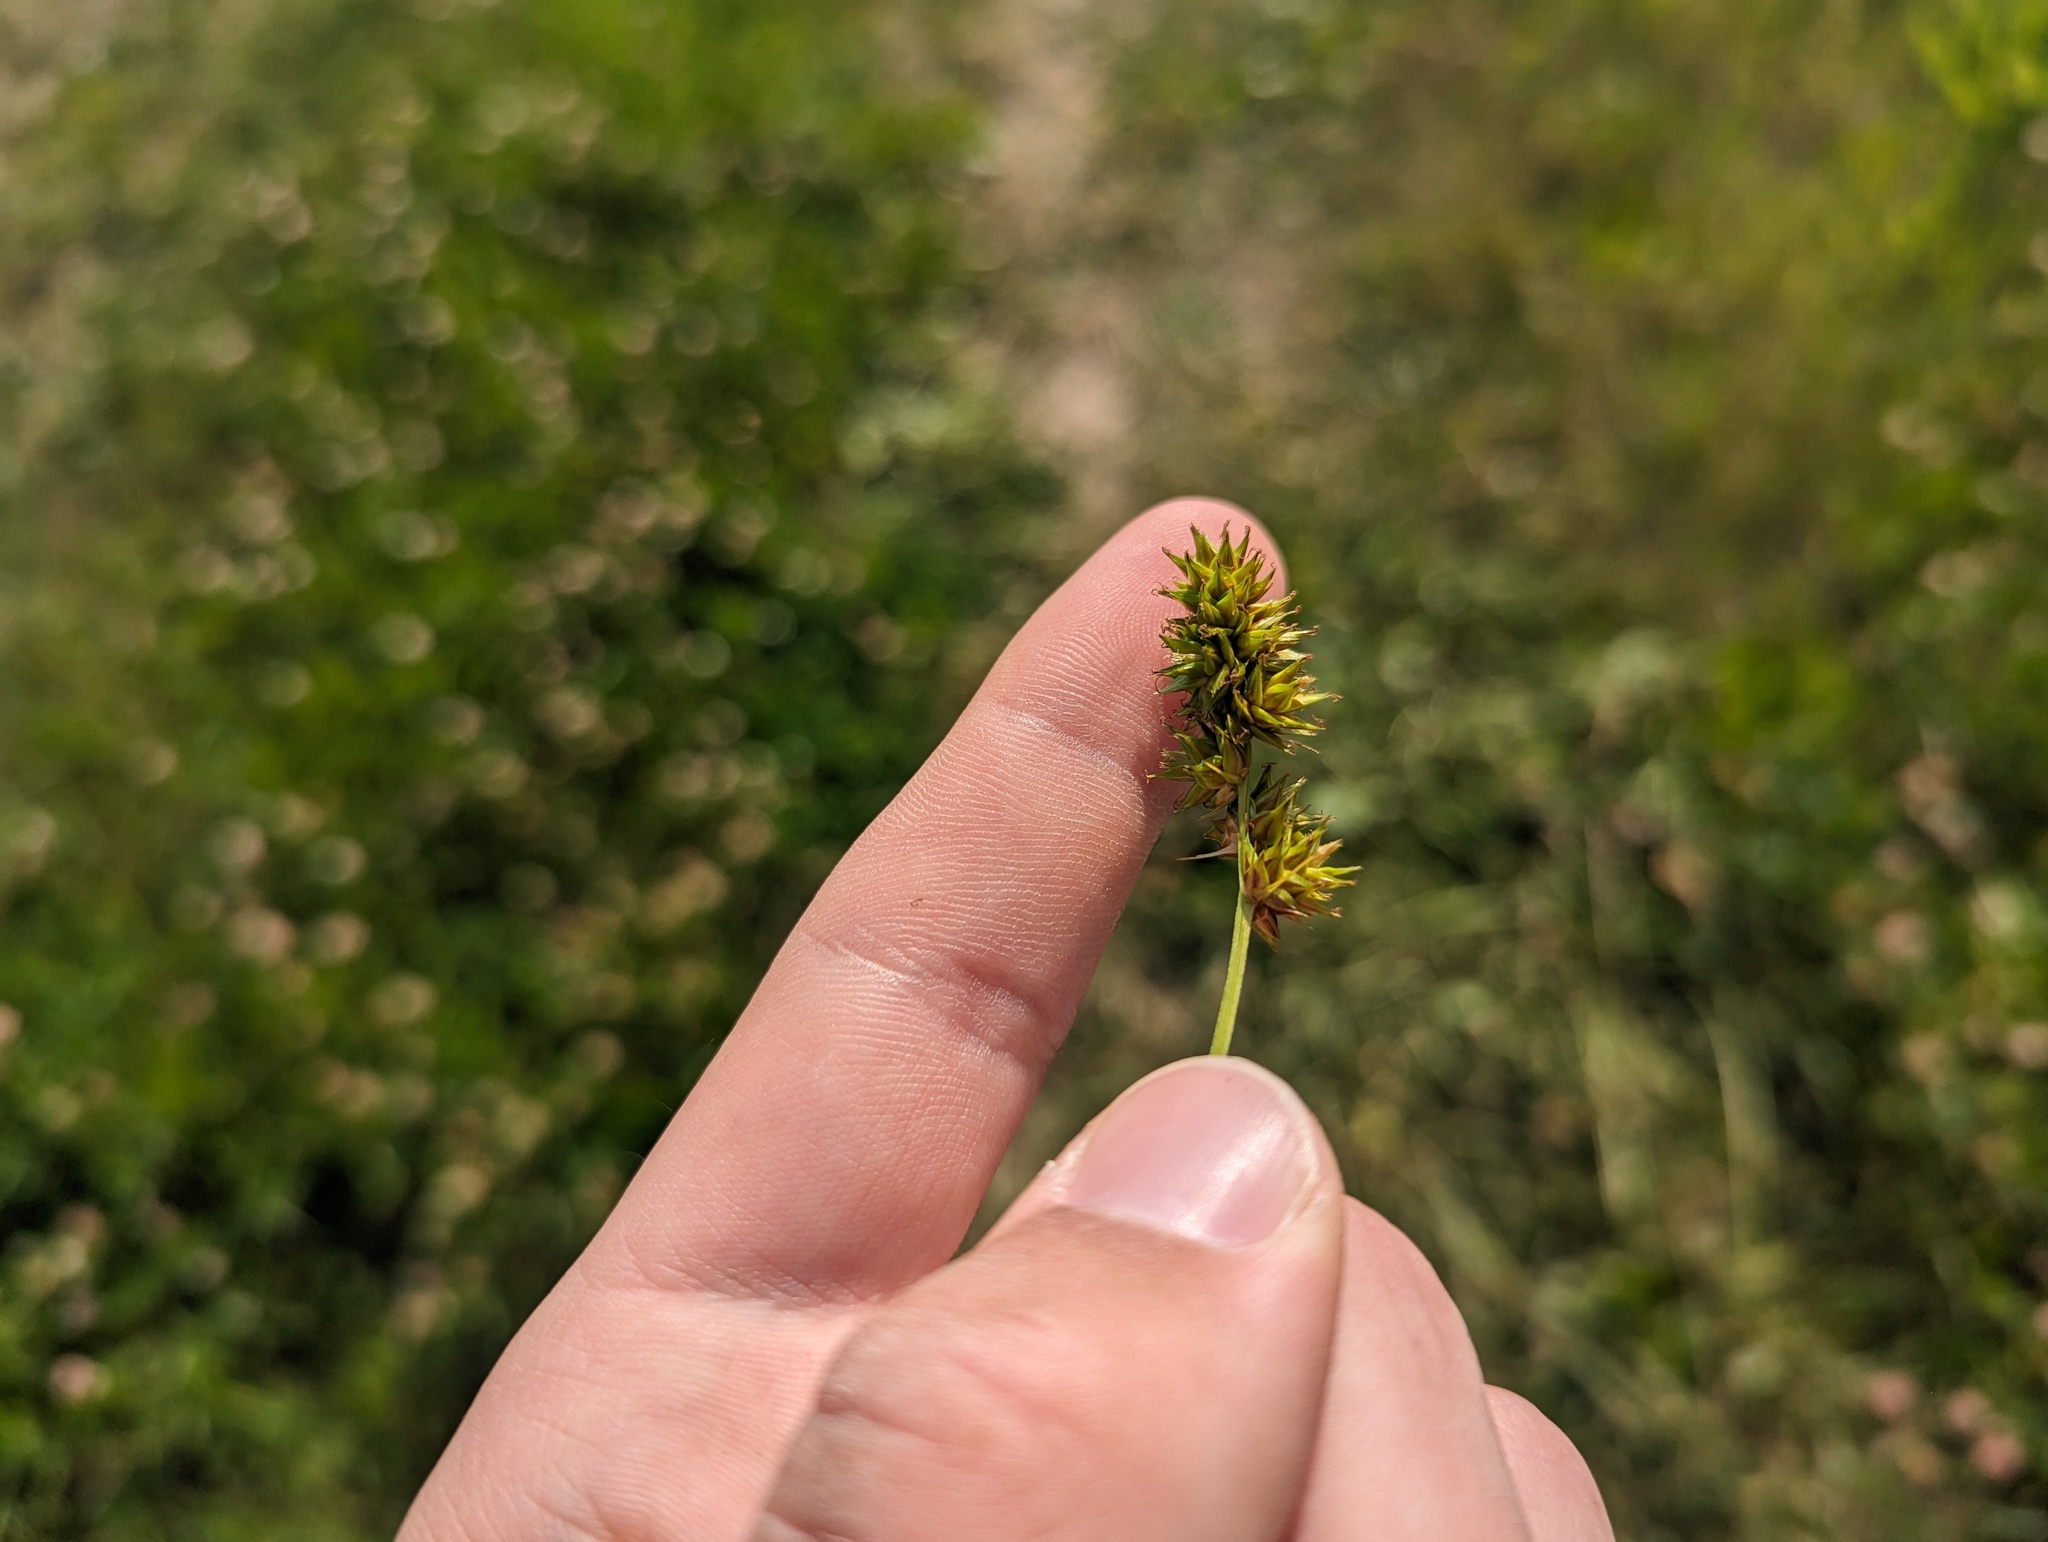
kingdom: Plantae
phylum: Tracheophyta
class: Liliopsida
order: Poales
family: Cyperaceae
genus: Carex
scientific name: Carex gravida
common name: Heavy sedge
